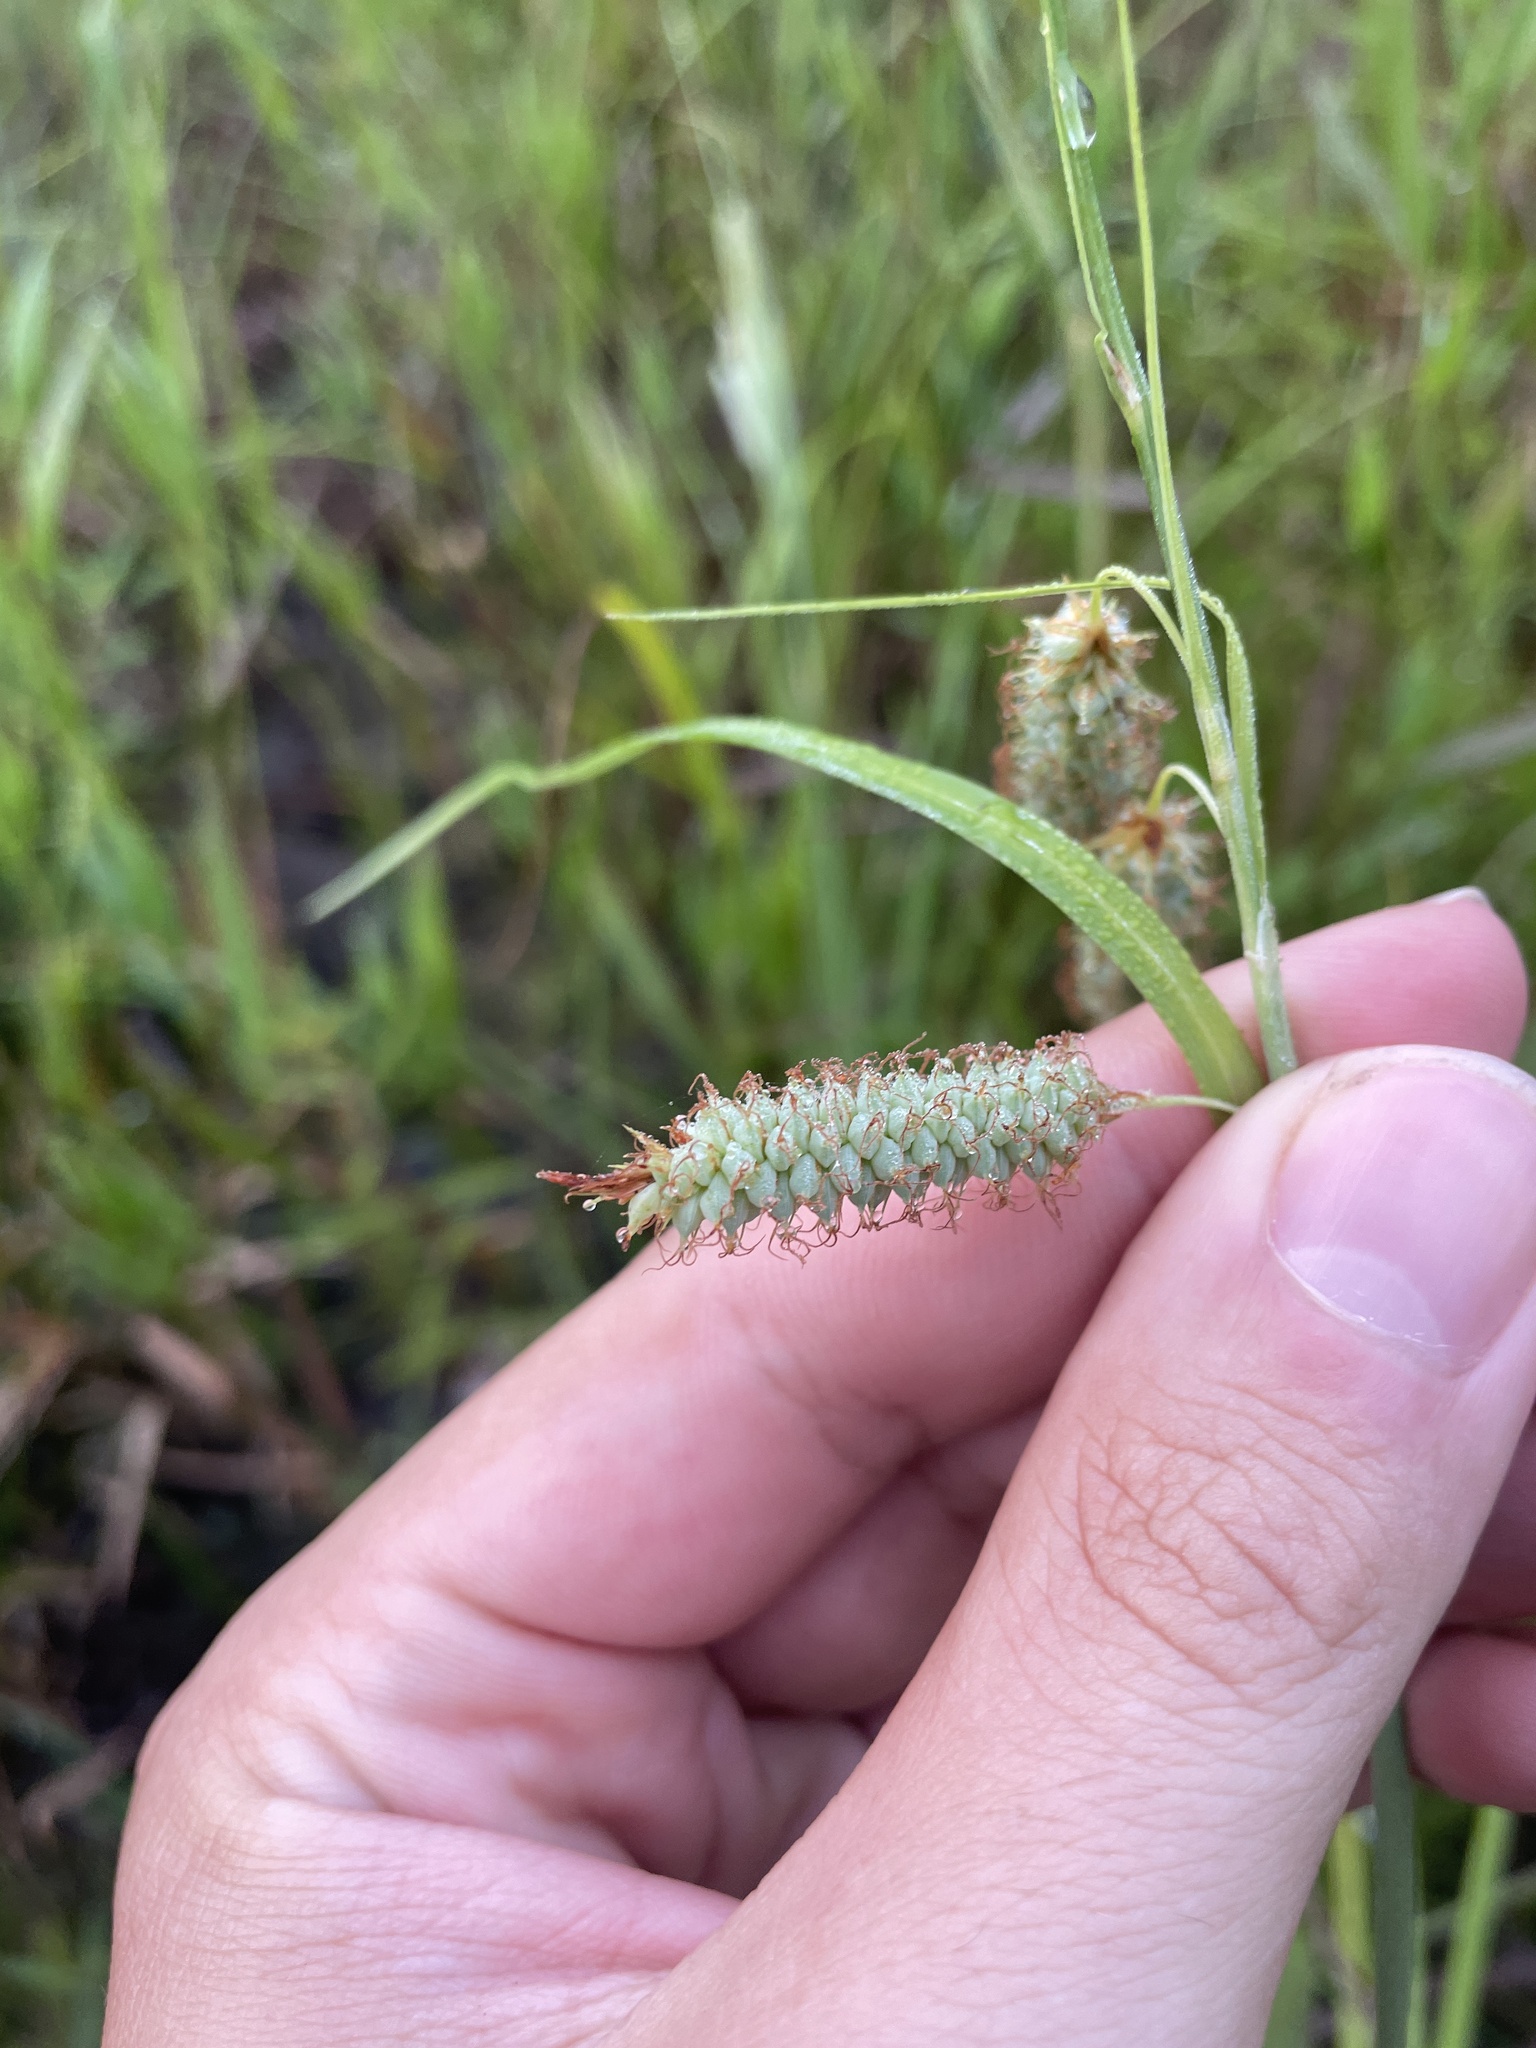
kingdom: Plantae
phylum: Tracheophyta
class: Liliopsida
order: Poales
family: Cyperaceae
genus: Carex
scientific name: Carex glaucescens
